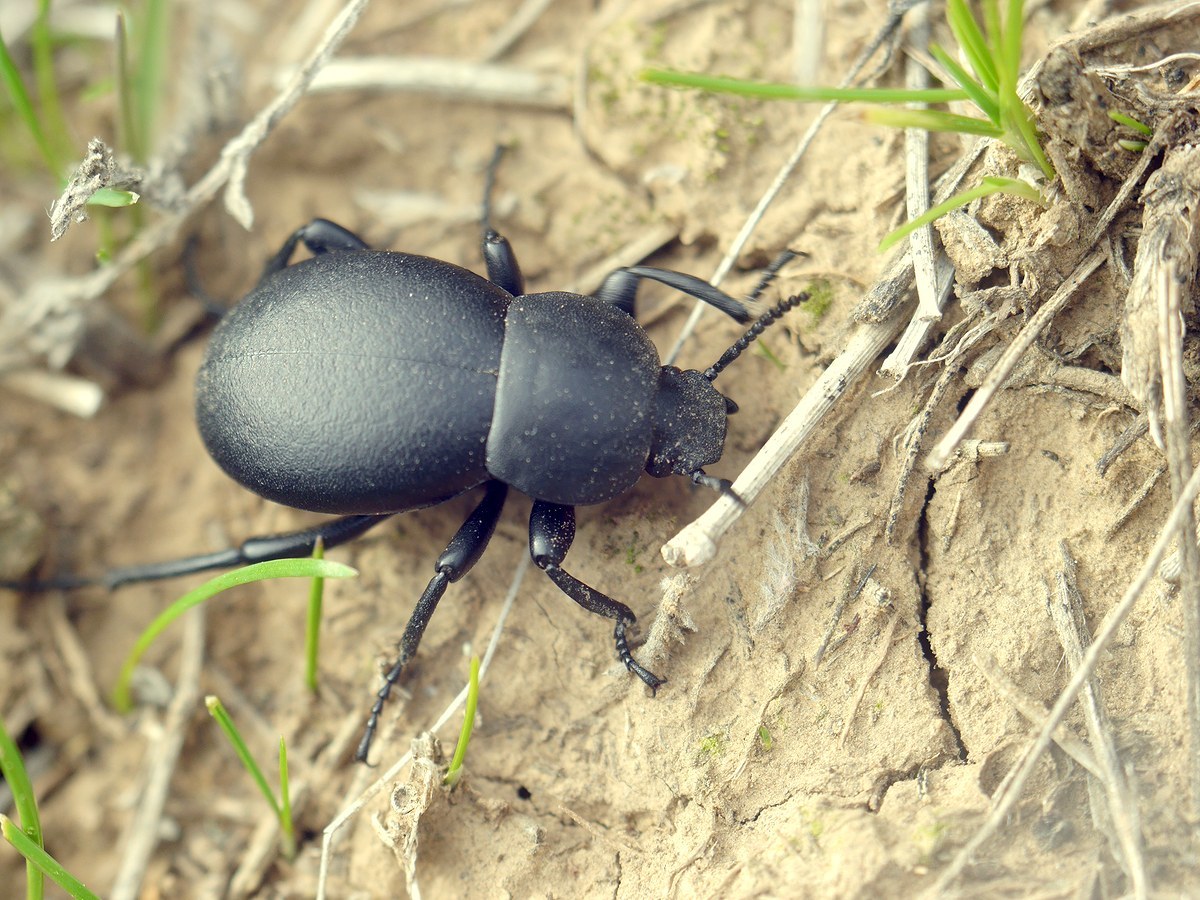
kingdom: Animalia
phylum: Arthropoda
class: Insecta
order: Coleoptera
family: Tenebrionidae
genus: Gnaptor
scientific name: Gnaptor spinimanus
